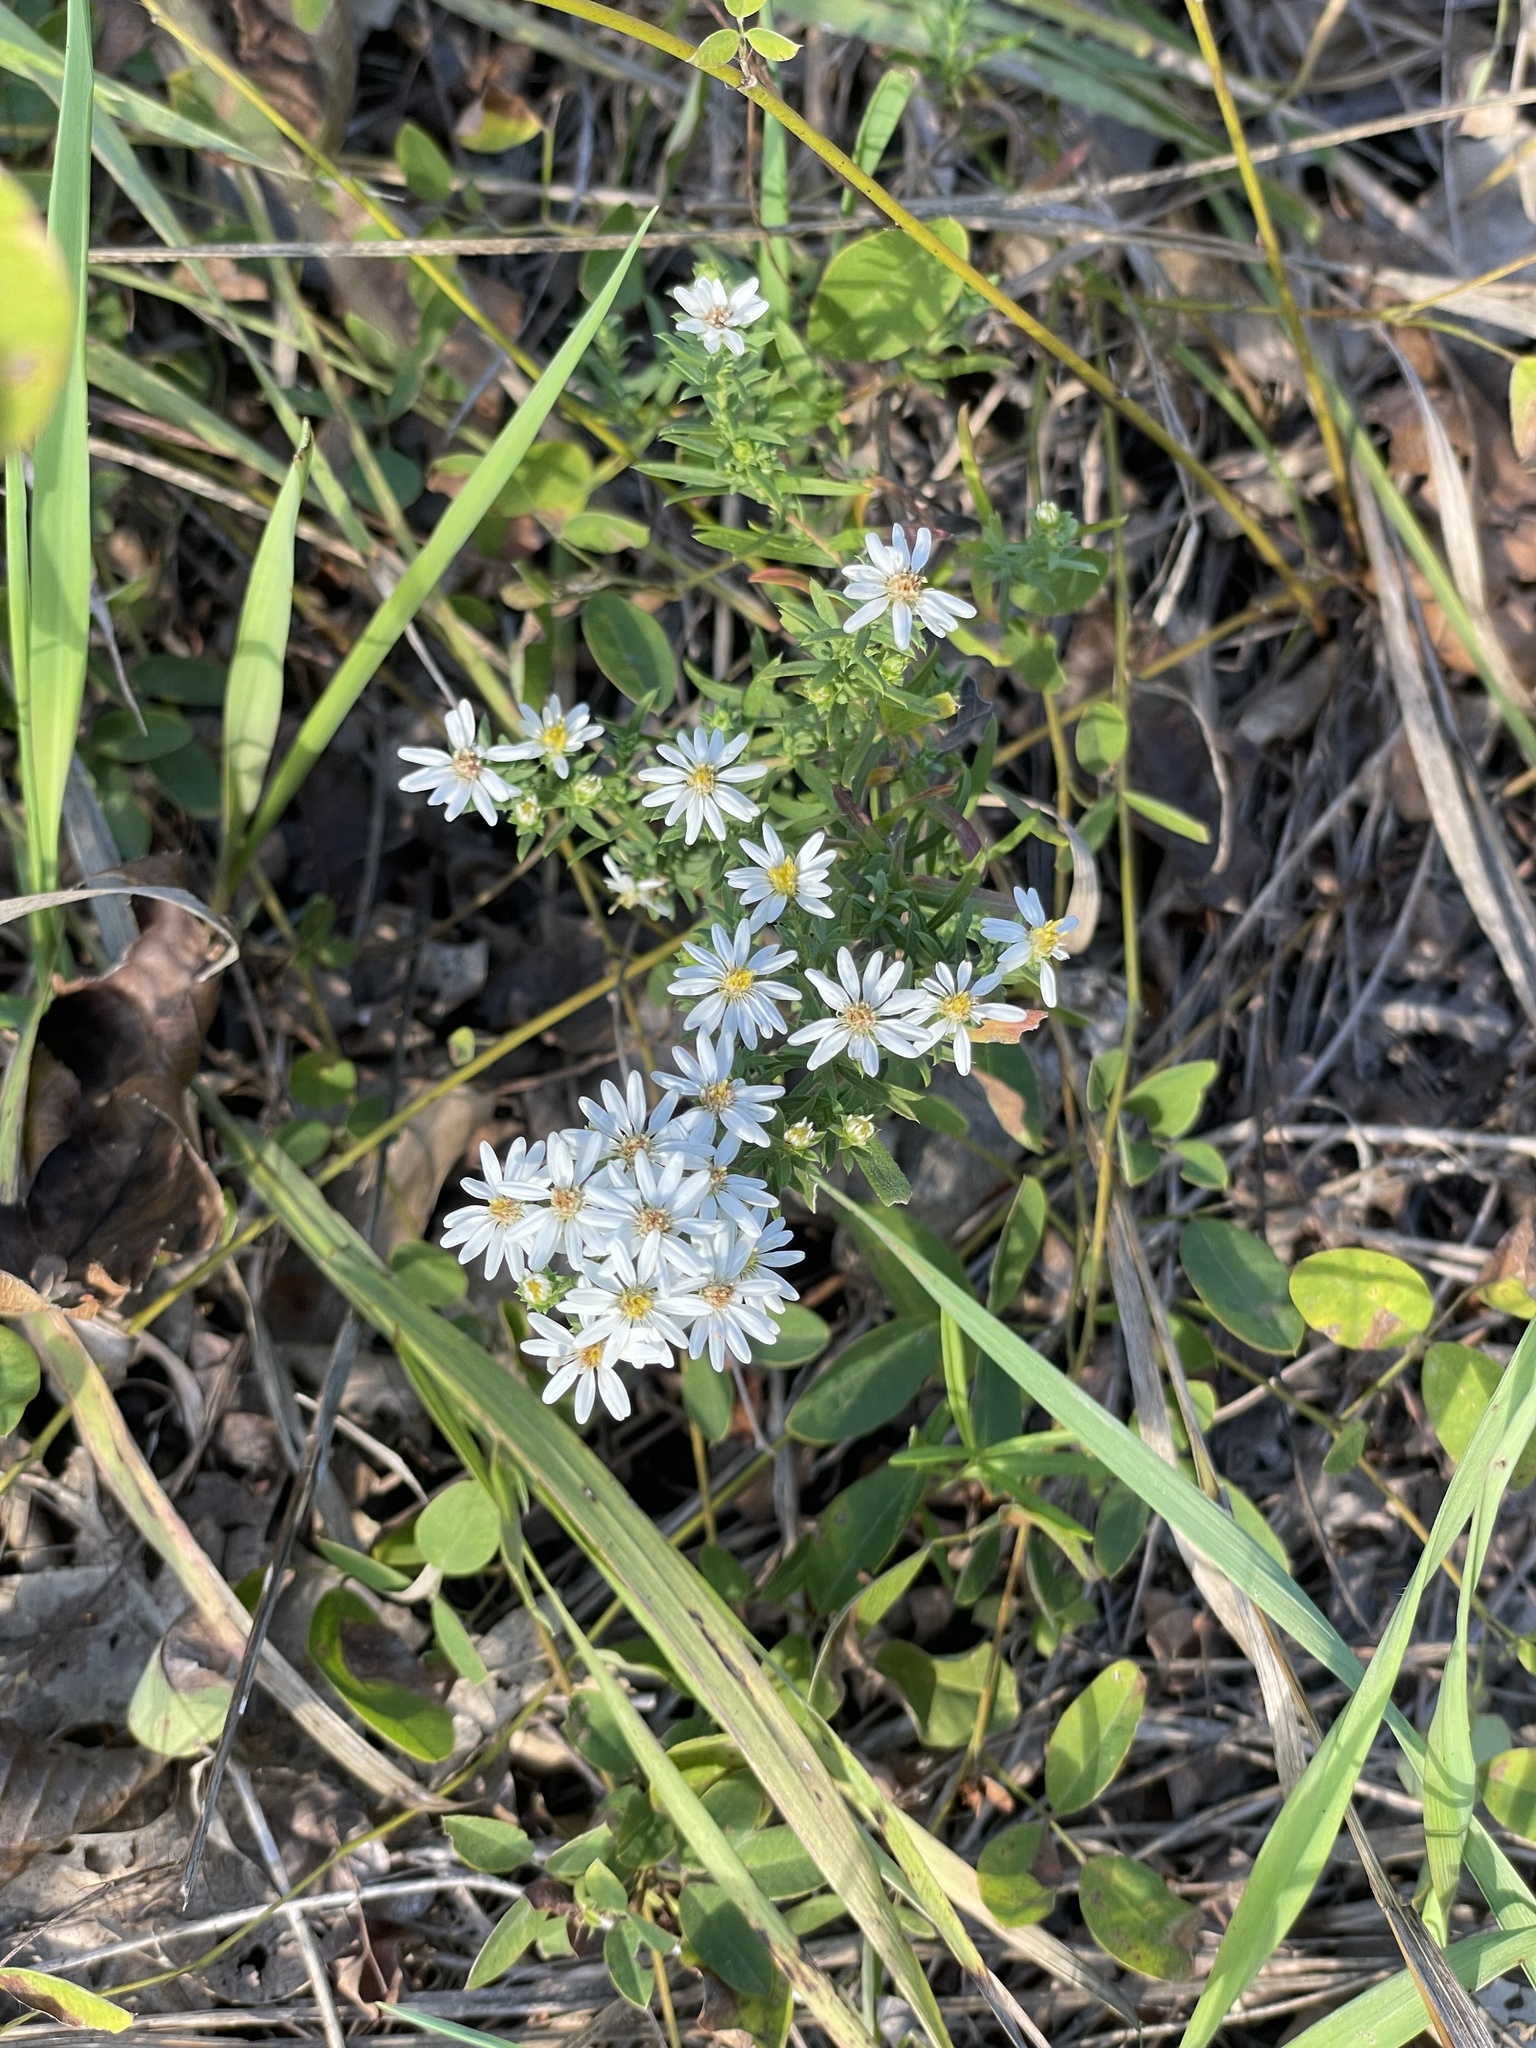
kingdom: Plantae
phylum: Tracheophyta
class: Magnoliopsida
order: Asterales
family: Asteraceae
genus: Symphyotrichum
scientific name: Symphyotrichum ericoides
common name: Heath aster
